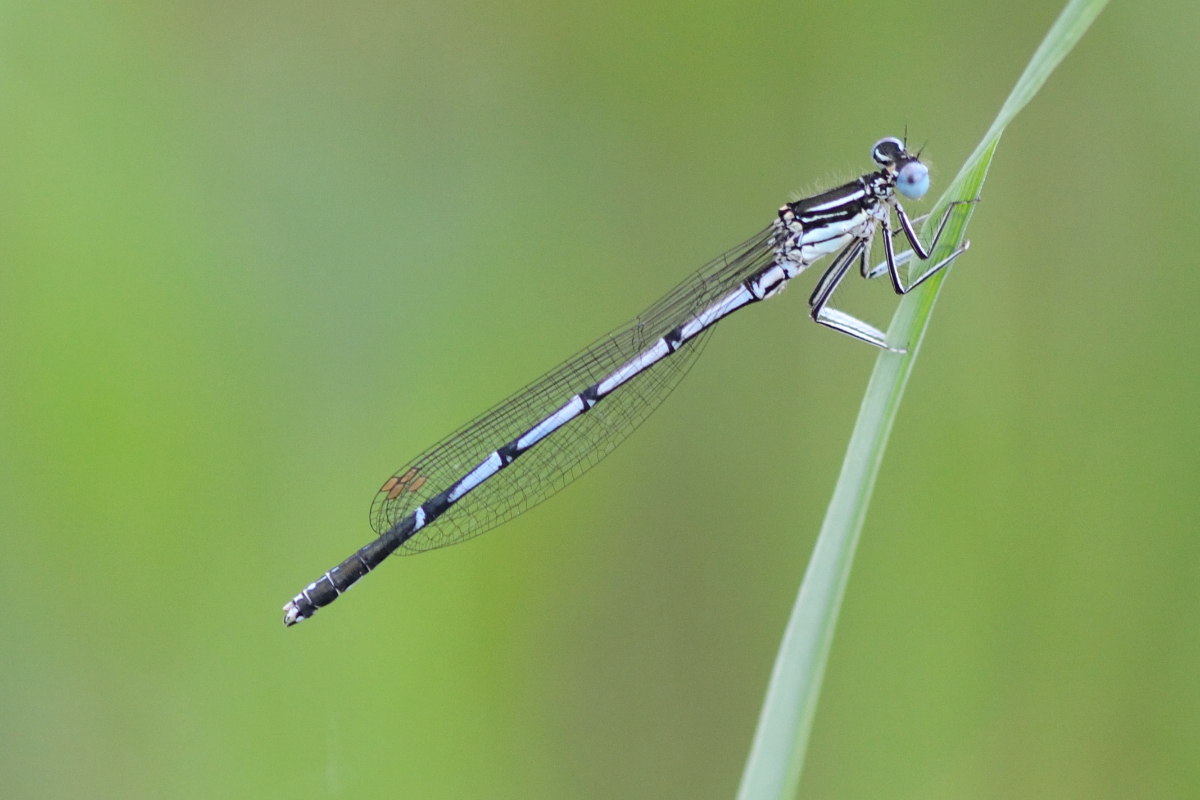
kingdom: Animalia
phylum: Arthropoda
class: Insecta
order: Odonata
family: Platycnemididae
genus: Platycnemis
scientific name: Platycnemis pennipes
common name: White-legged damselfly
